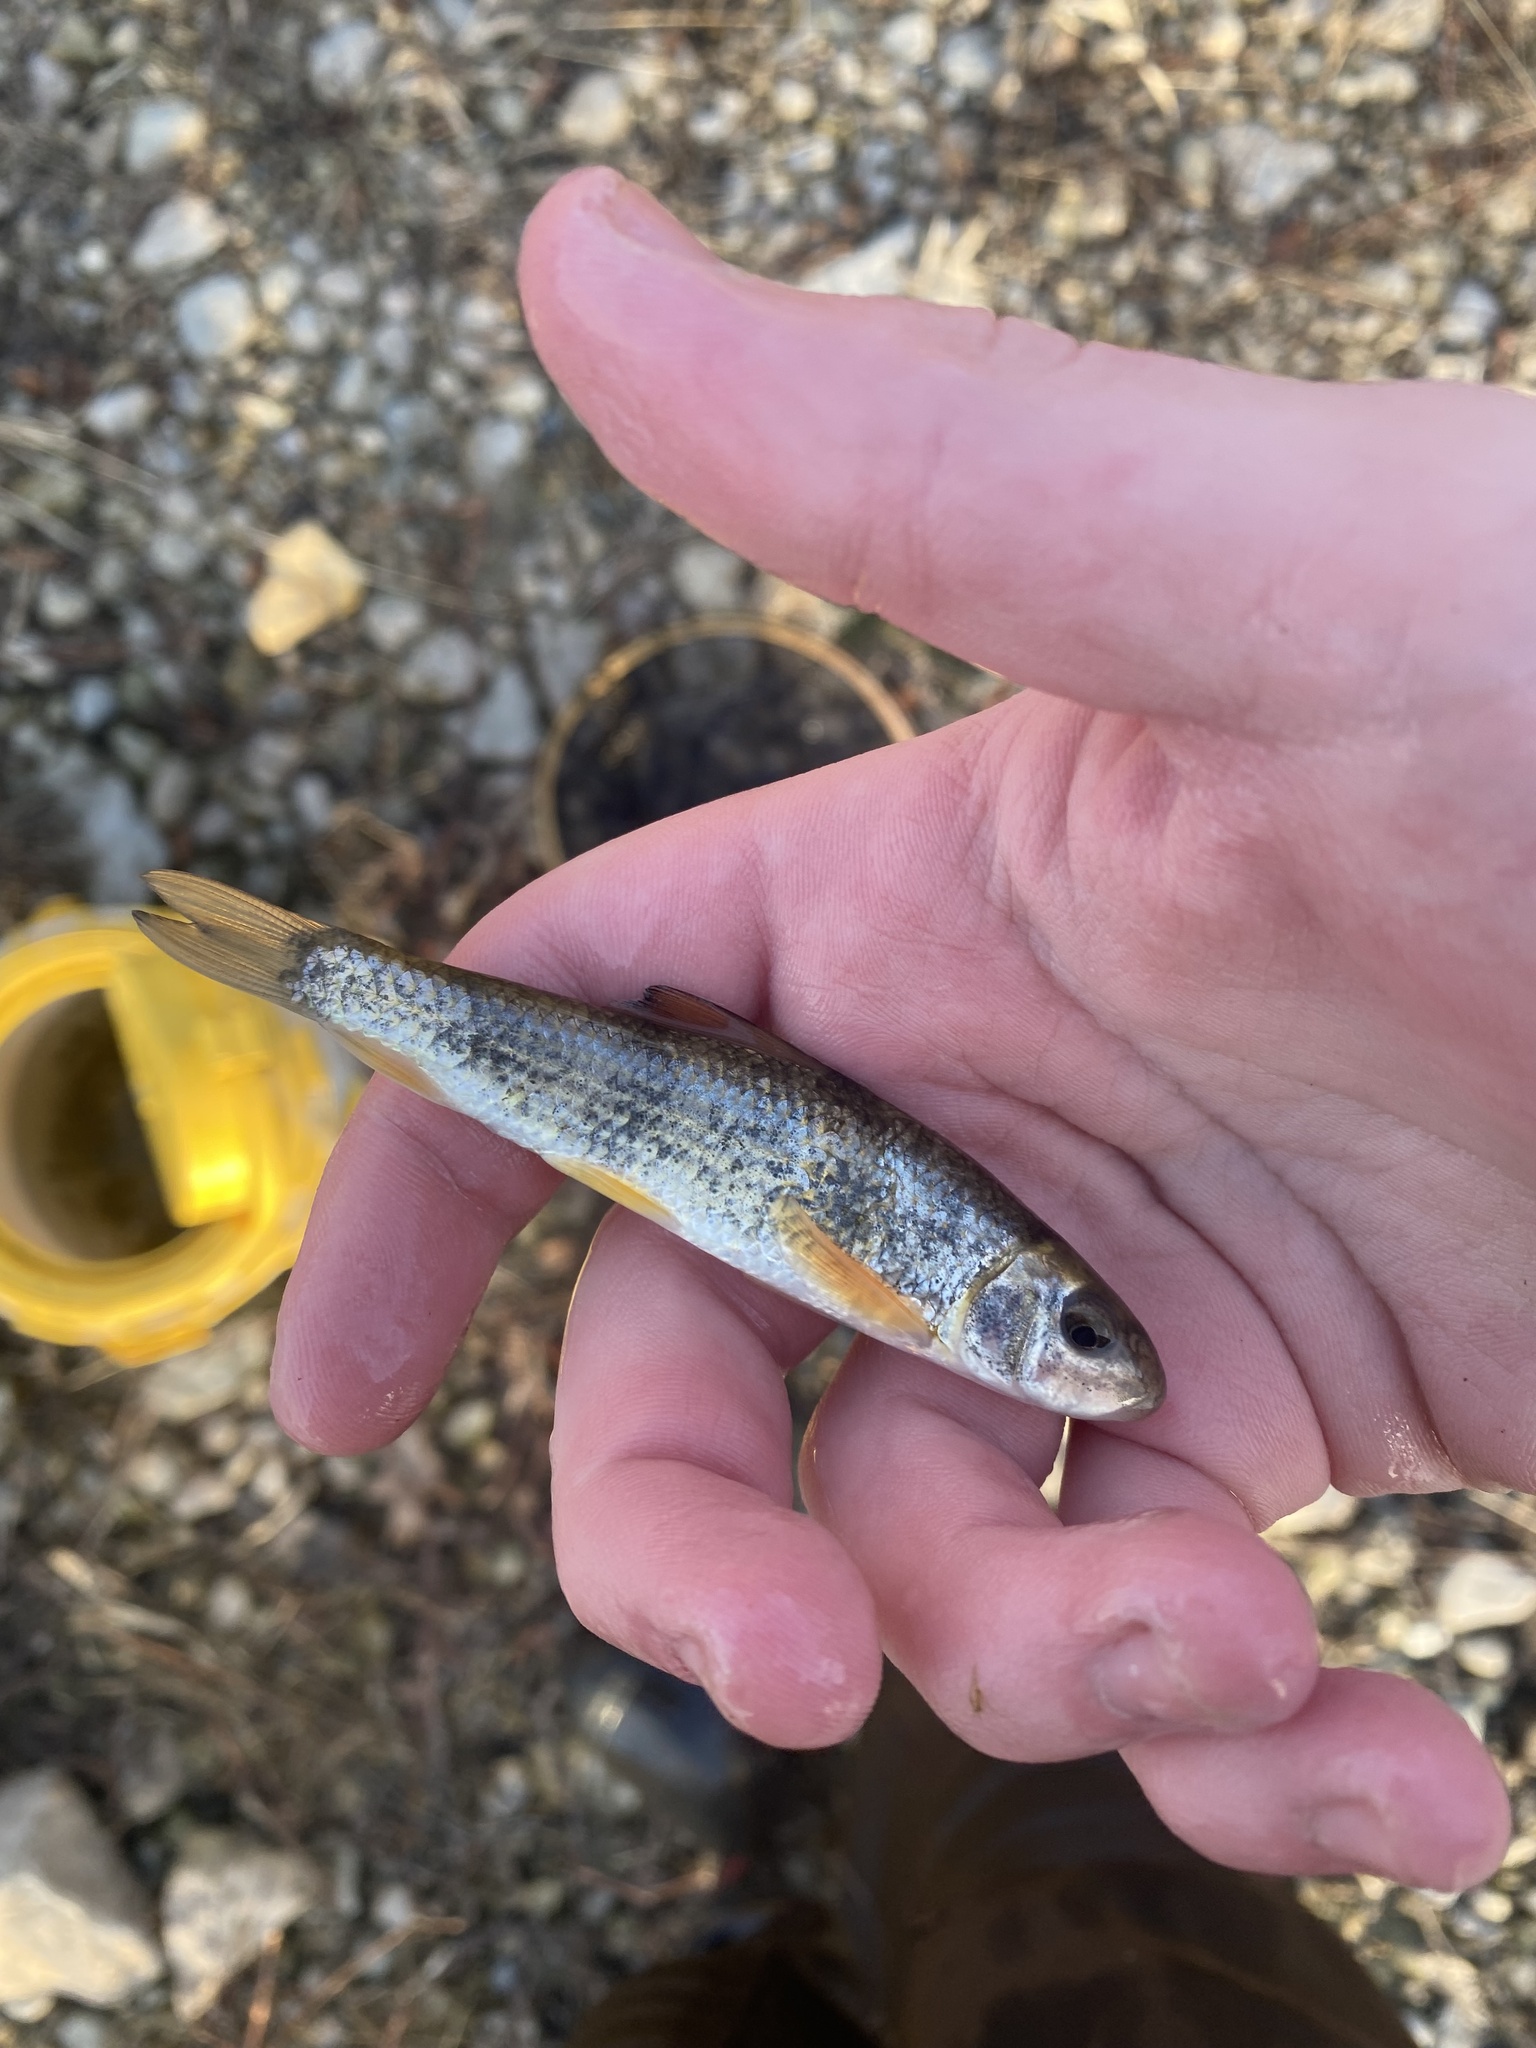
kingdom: Animalia
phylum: Chordata
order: Cypriniformes
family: Catostomidae
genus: Moxostoma
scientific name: Moxostoma
